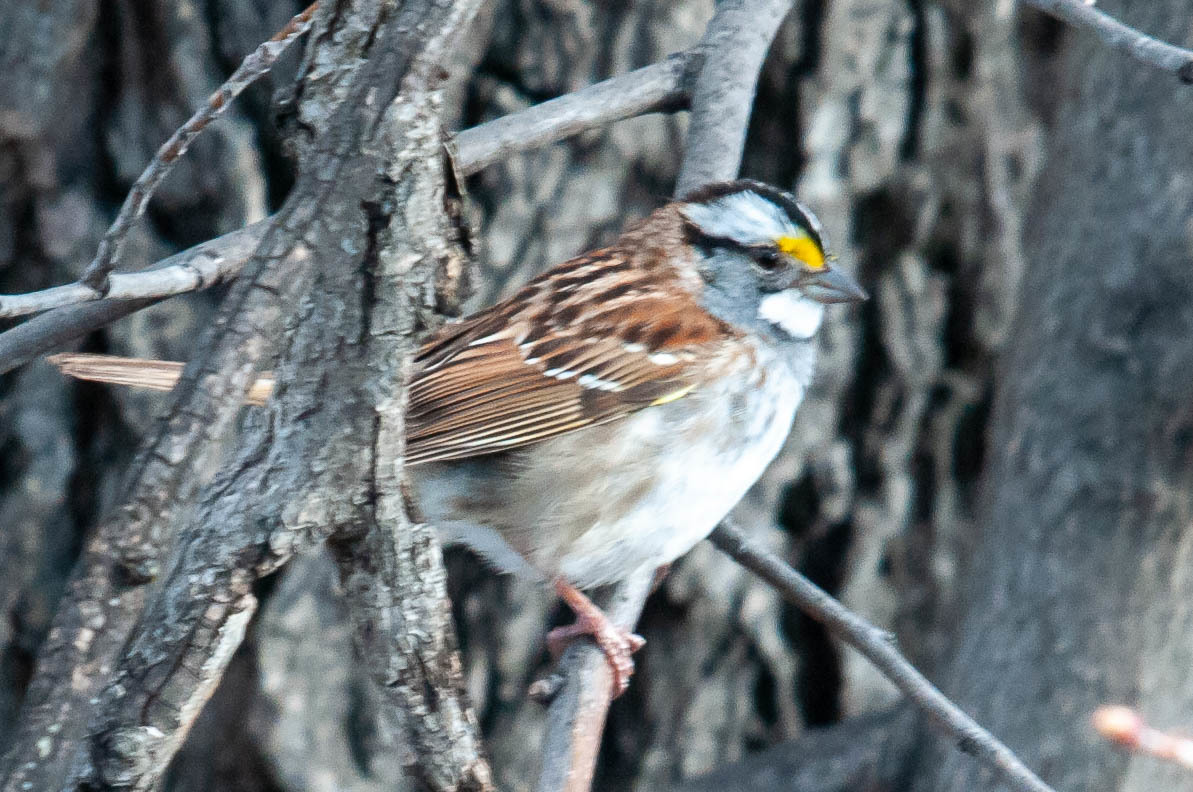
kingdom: Animalia
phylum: Chordata
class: Aves
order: Passeriformes
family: Passerellidae
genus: Zonotrichia
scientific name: Zonotrichia albicollis
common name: White-throated sparrow
